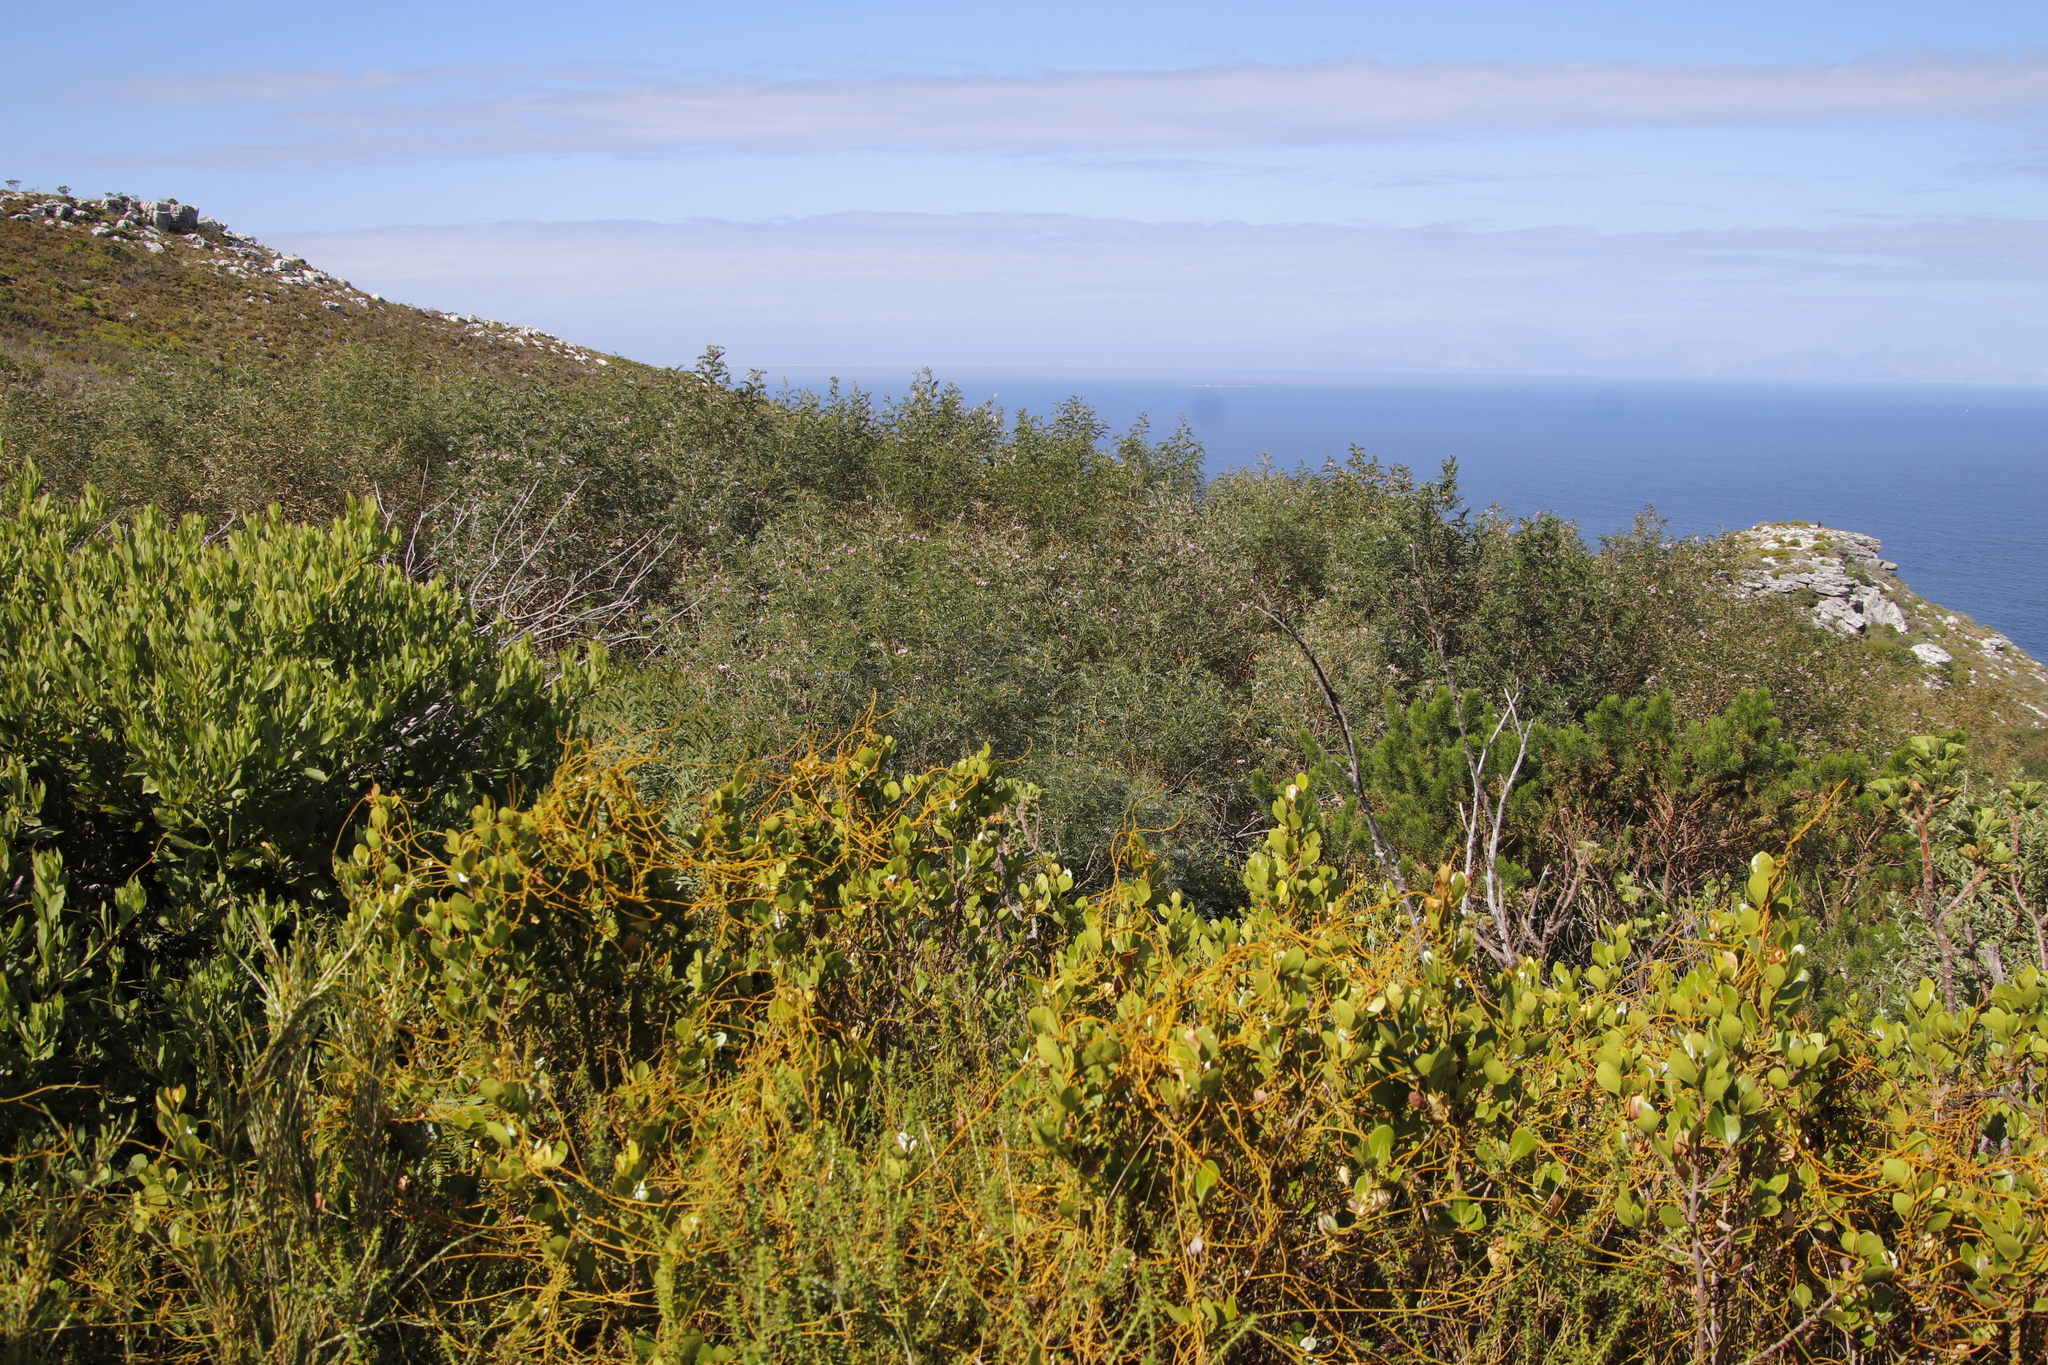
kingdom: Plantae
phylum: Tracheophyta
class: Magnoliopsida
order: Laurales
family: Lauraceae
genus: Cassytha
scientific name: Cassytha ciliolata
